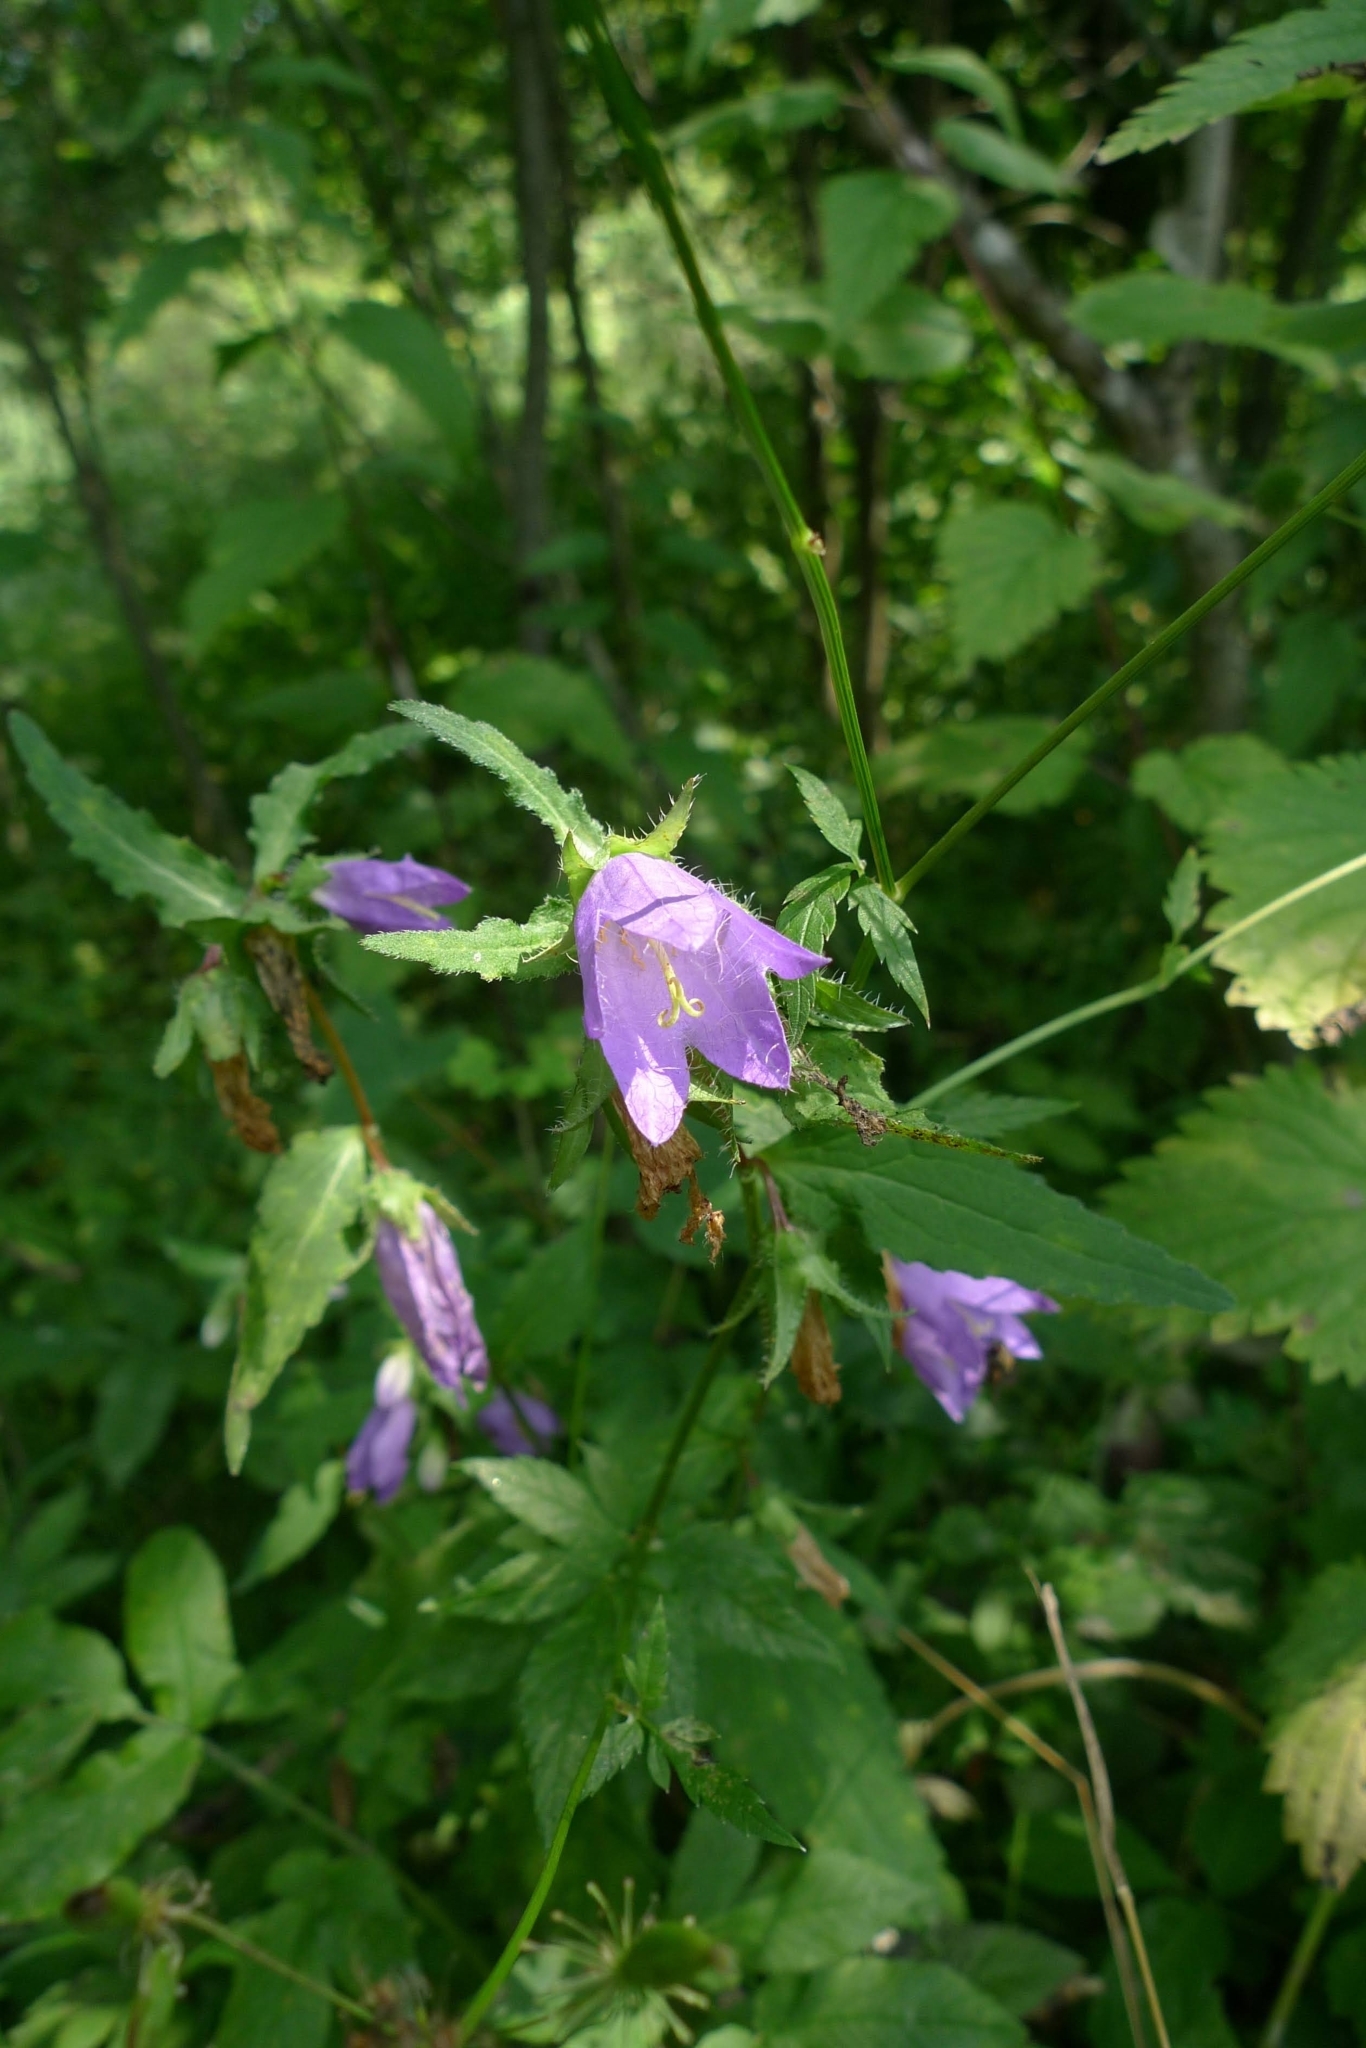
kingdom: Plantae
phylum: Tracheophyta
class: Magnoliopsida
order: Asterales
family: Campanulaceae
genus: Campanula
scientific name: Campanula trachelium
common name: Nettle-leaved bellflower
